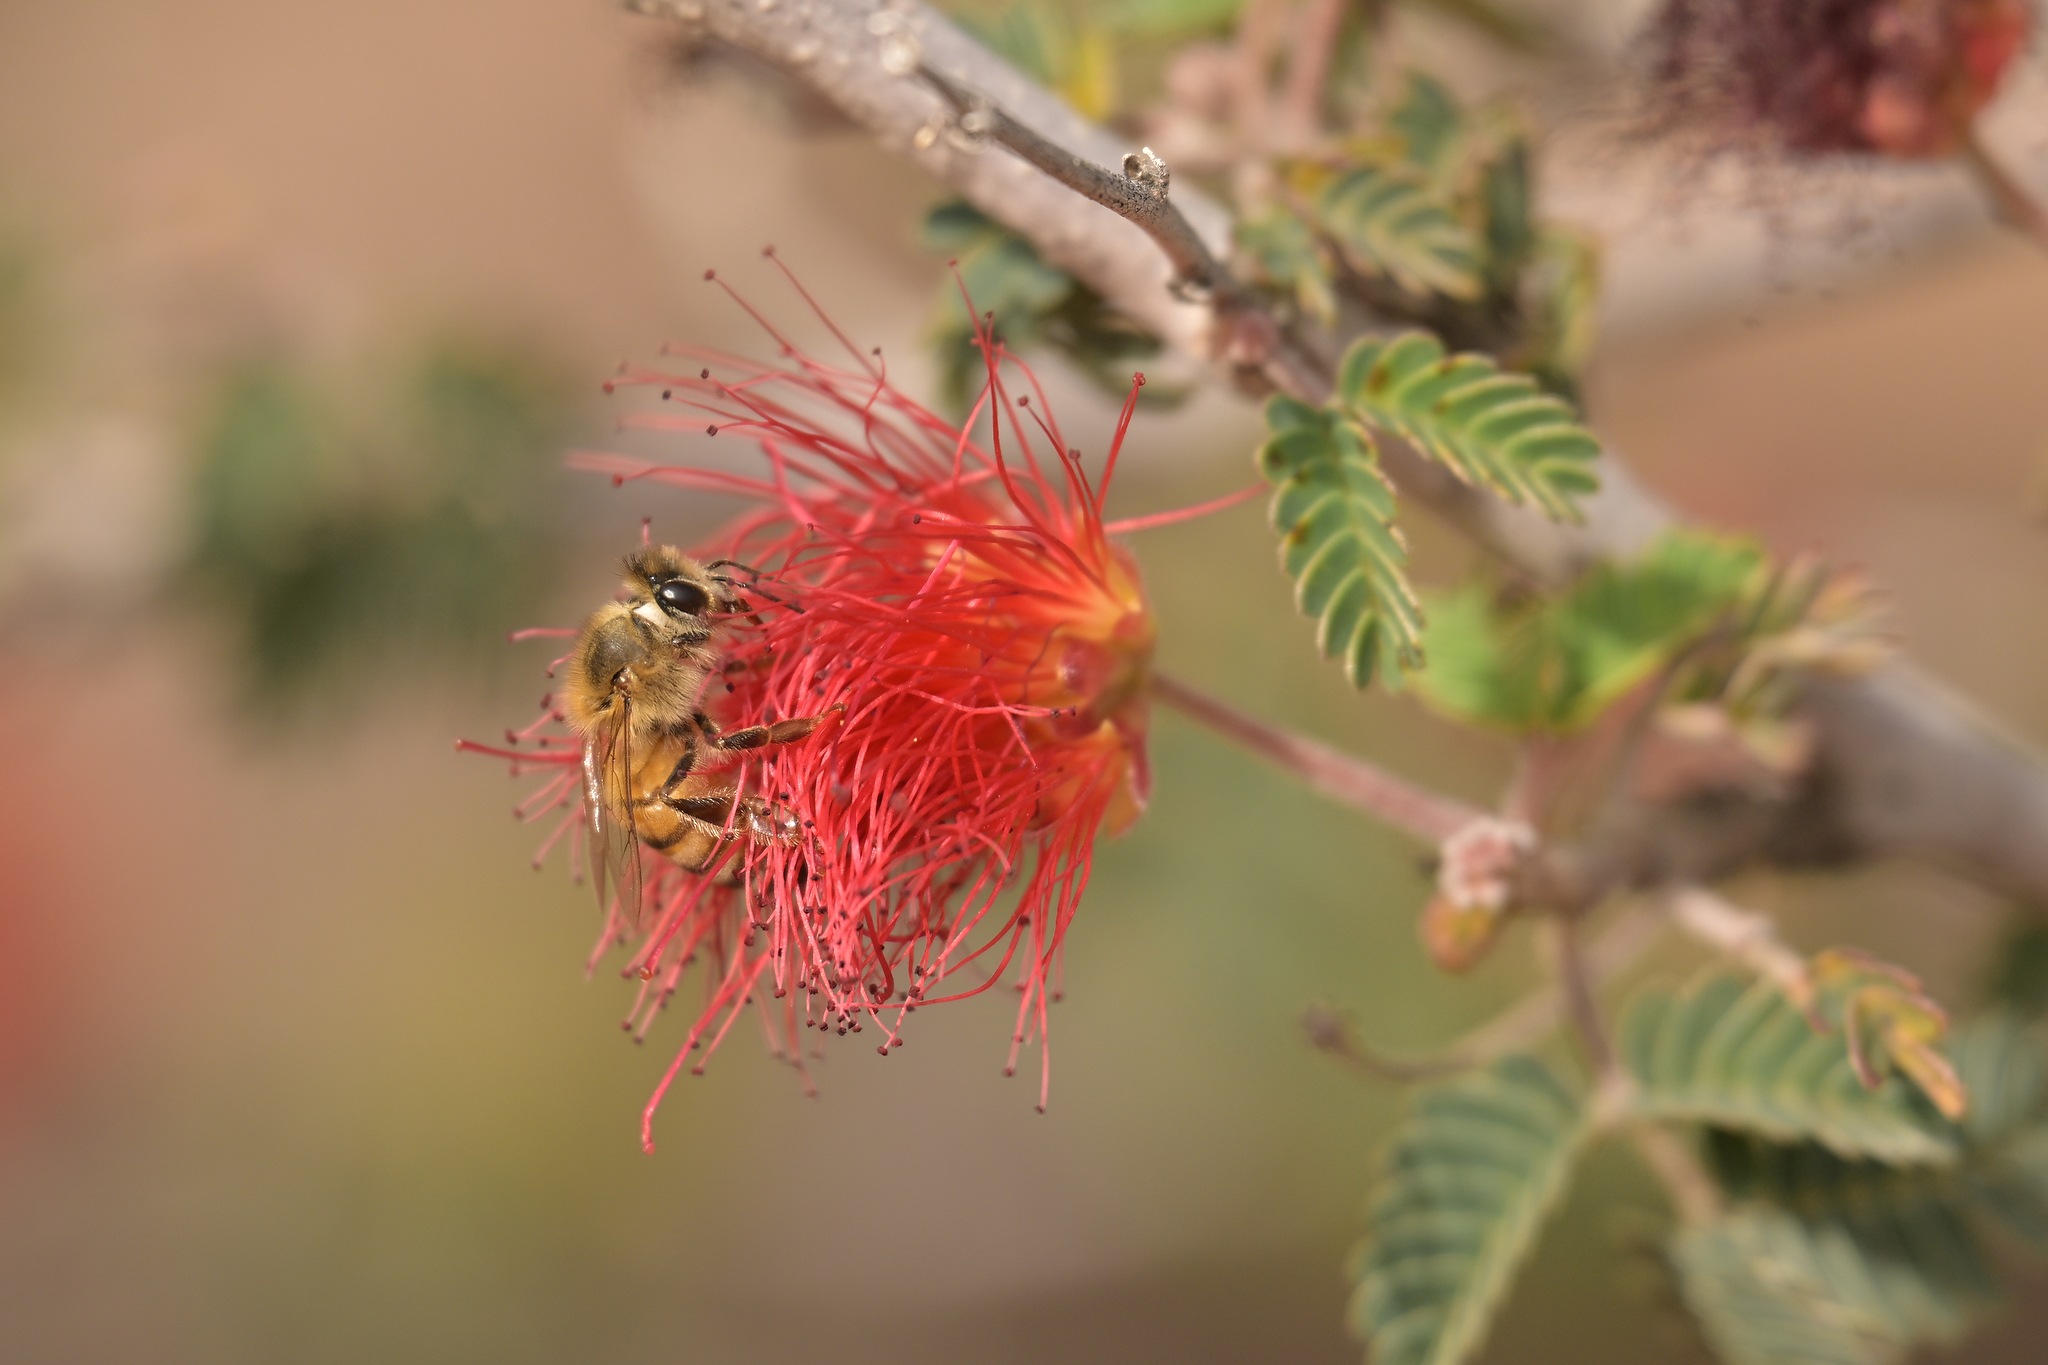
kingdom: Animalia
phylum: Arthropoda
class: Insecta
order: Hymenoptera
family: Apidae
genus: Apis
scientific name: Apis mellifera
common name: Honey bee
